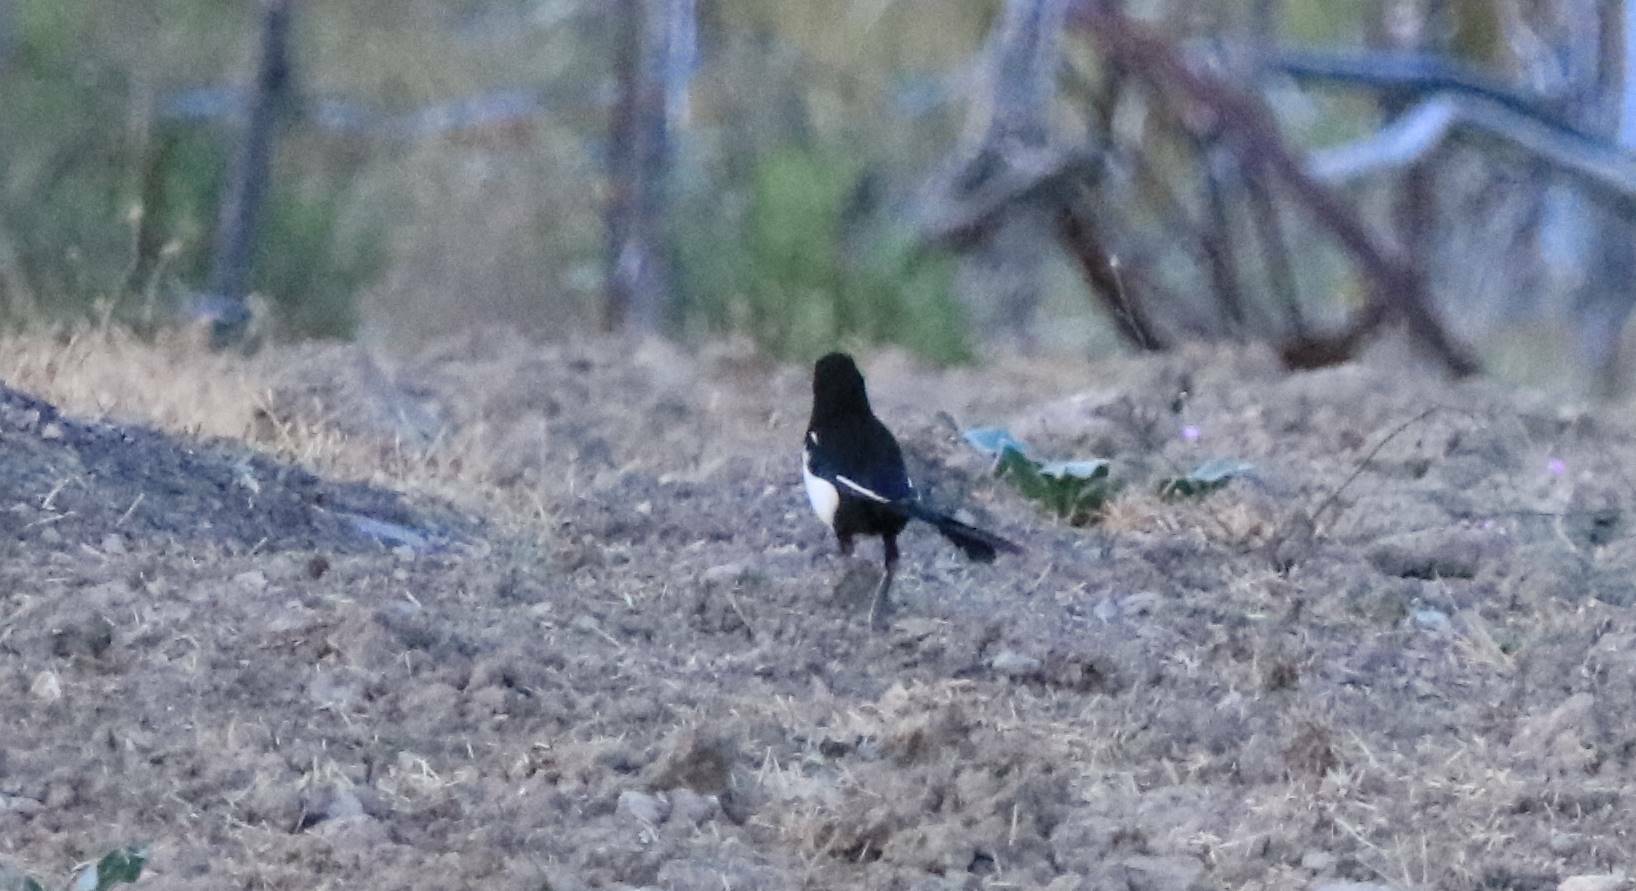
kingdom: Animalia
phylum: Chordata
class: Aves
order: Passeriformes
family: Corvidae
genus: Pica
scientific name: Pica mauritanica
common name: Maghreb magpie
